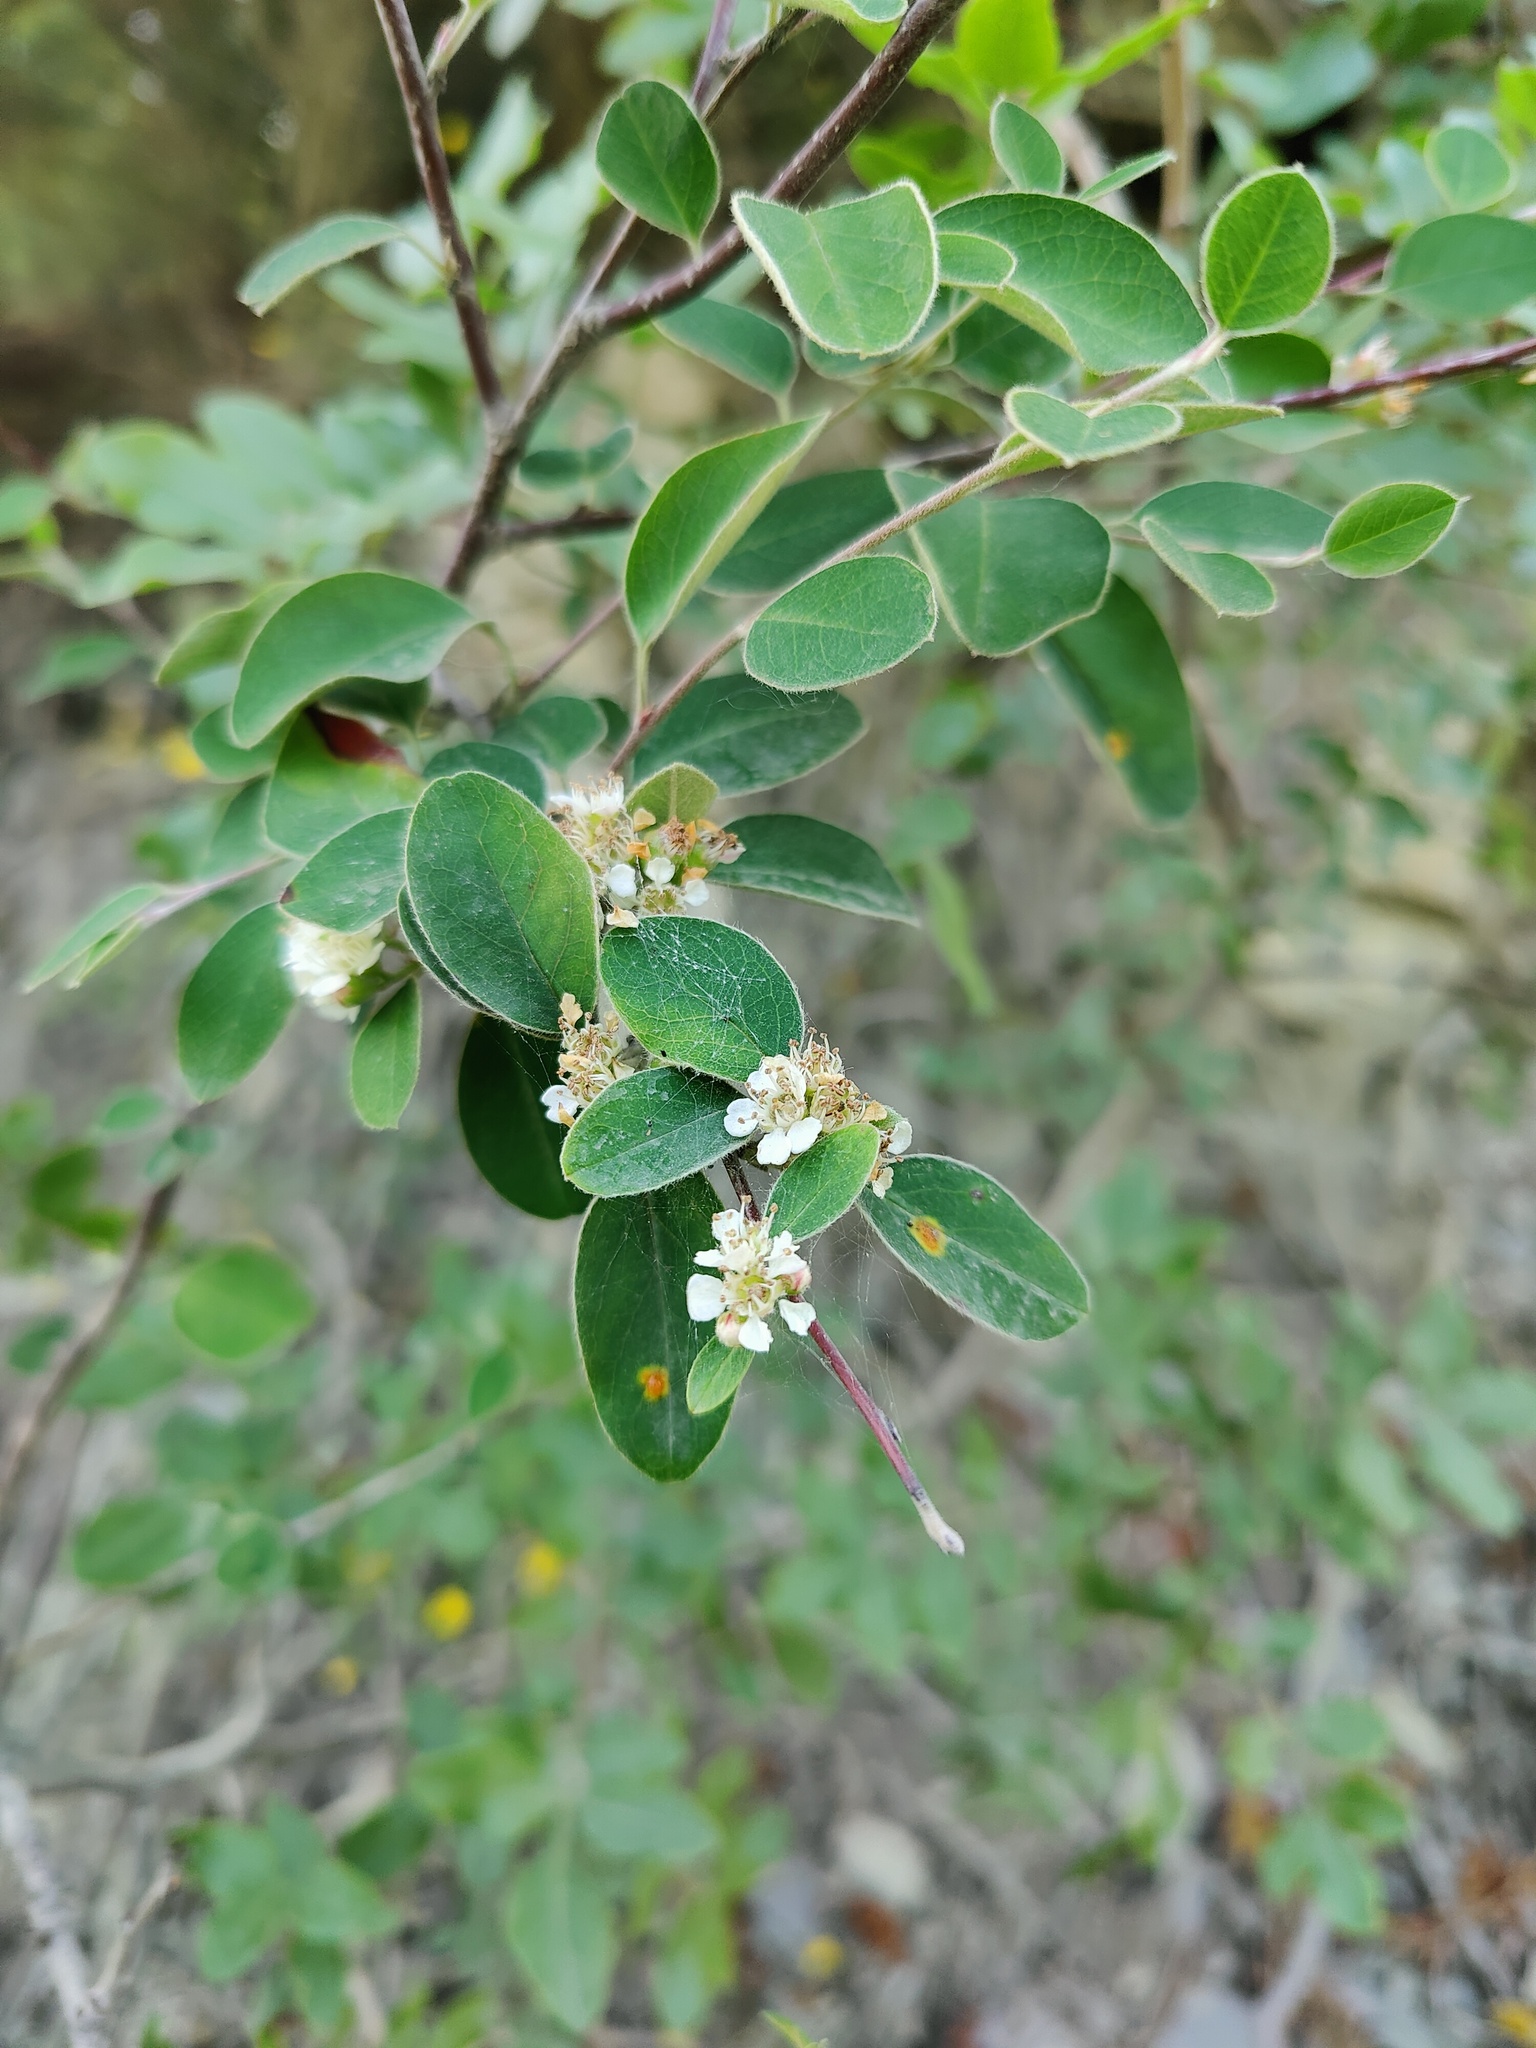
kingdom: Plantae
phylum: Tracheophyta
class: Magnoliopsida
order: Rosales
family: Rosaceae
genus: Cotoneaster
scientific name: Cotoneaster tauricus
